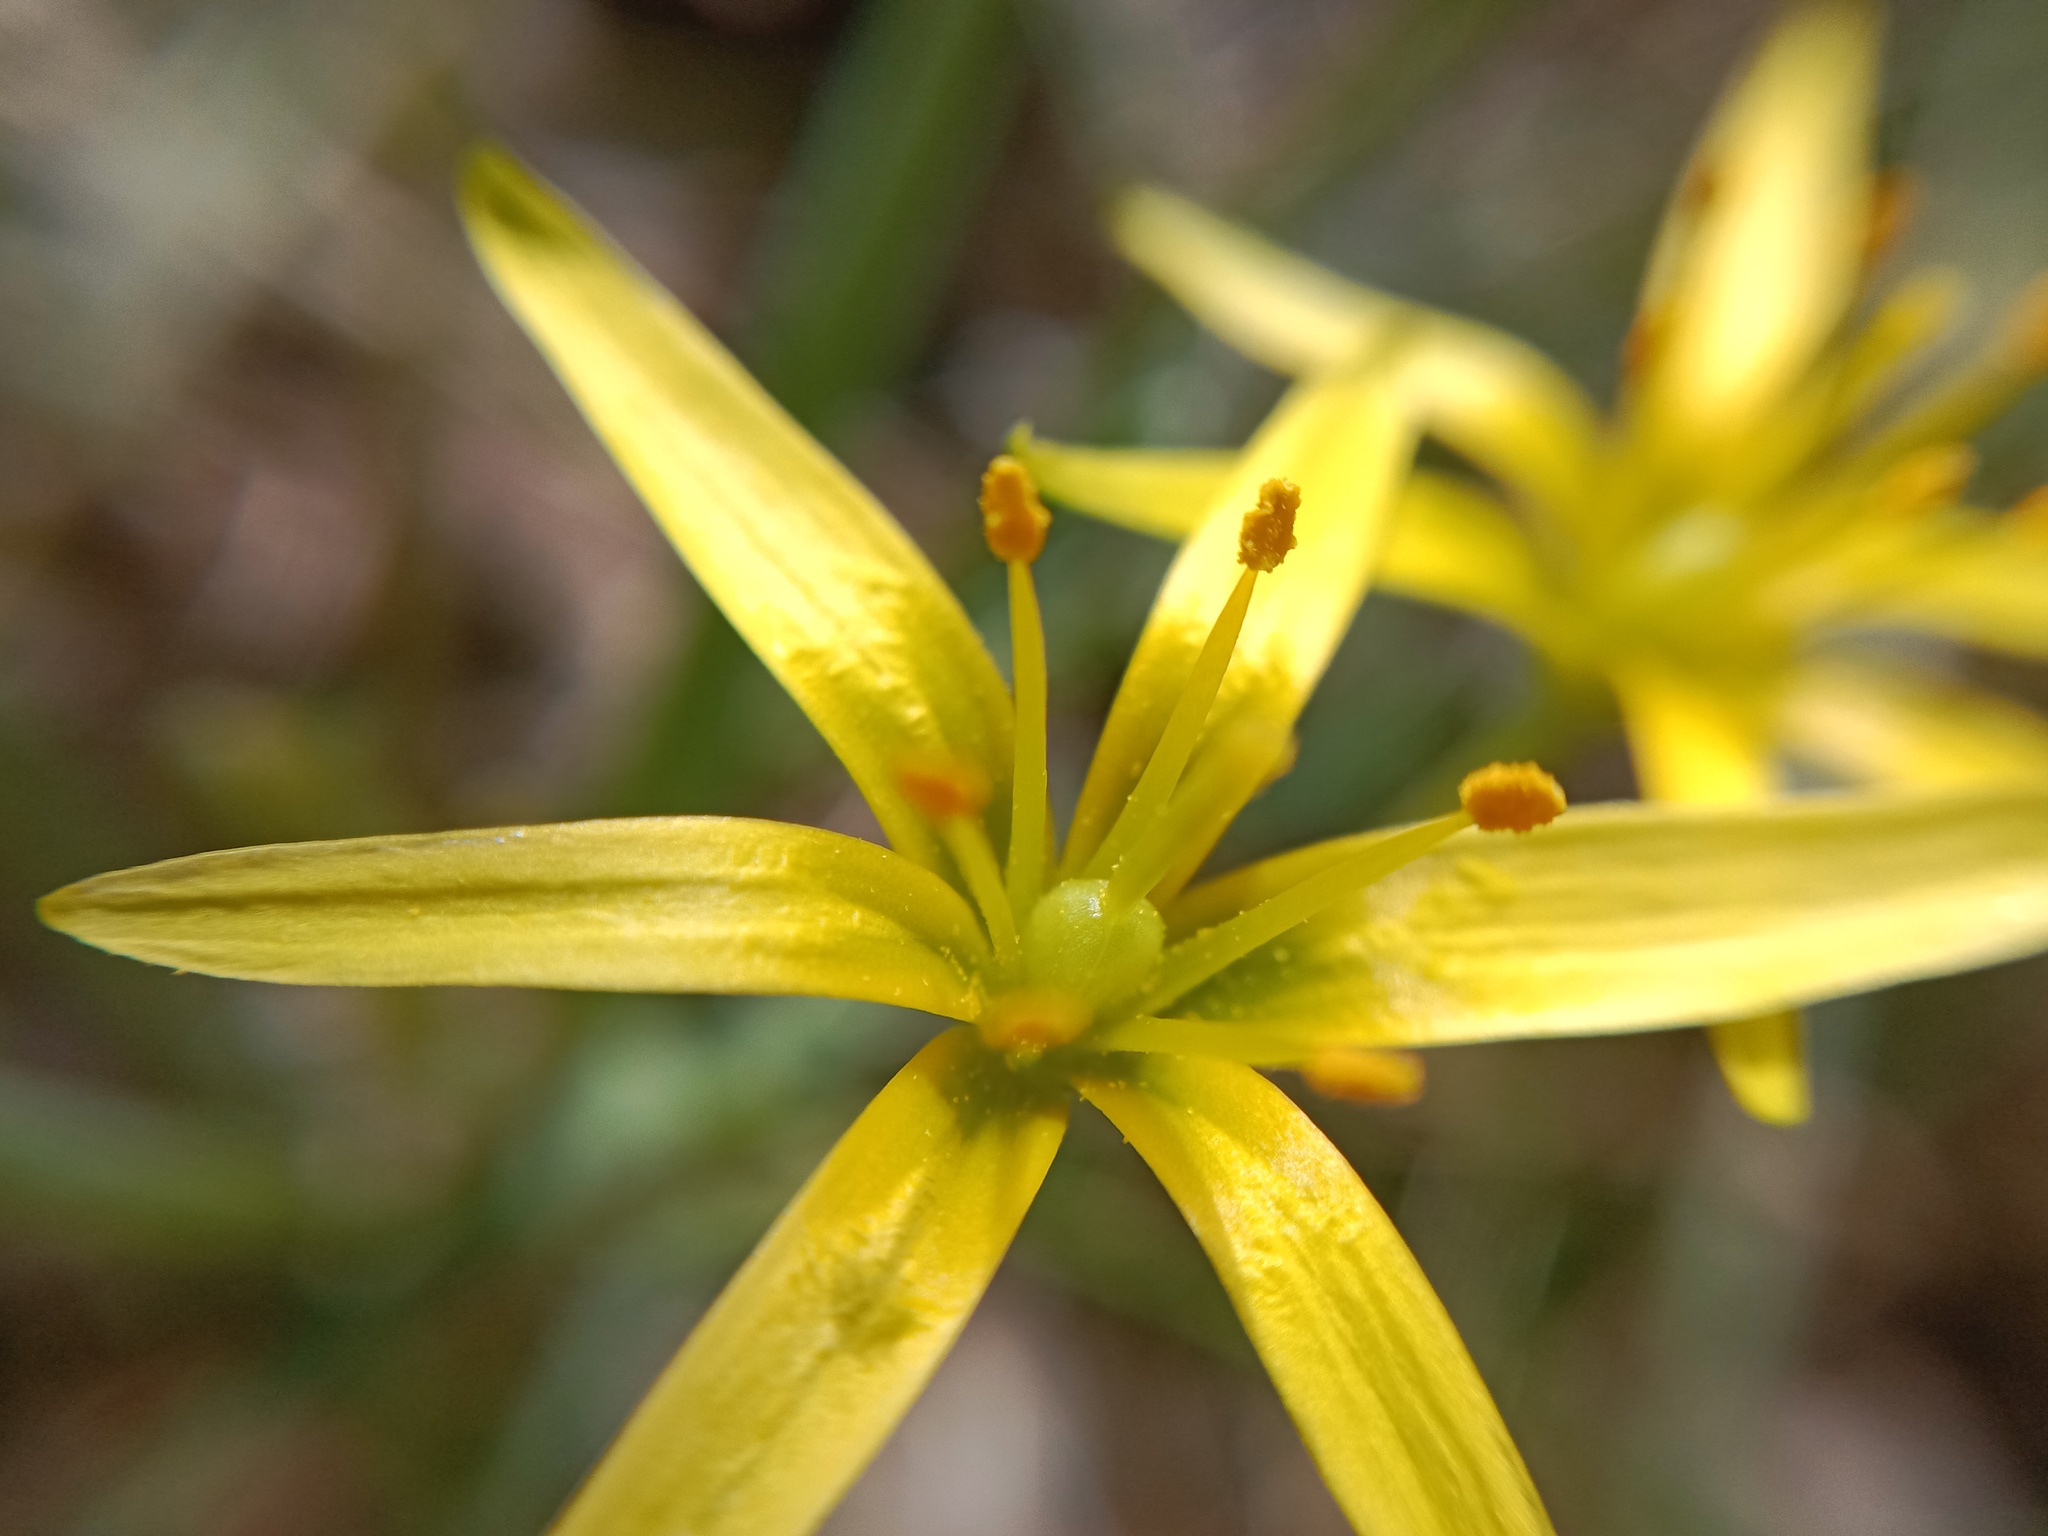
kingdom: Plantae
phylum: Tracheophyta
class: Liliopsida
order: Liliales
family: Liliaceae
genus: Gagea
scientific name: Gagea fragifera
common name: Lily
